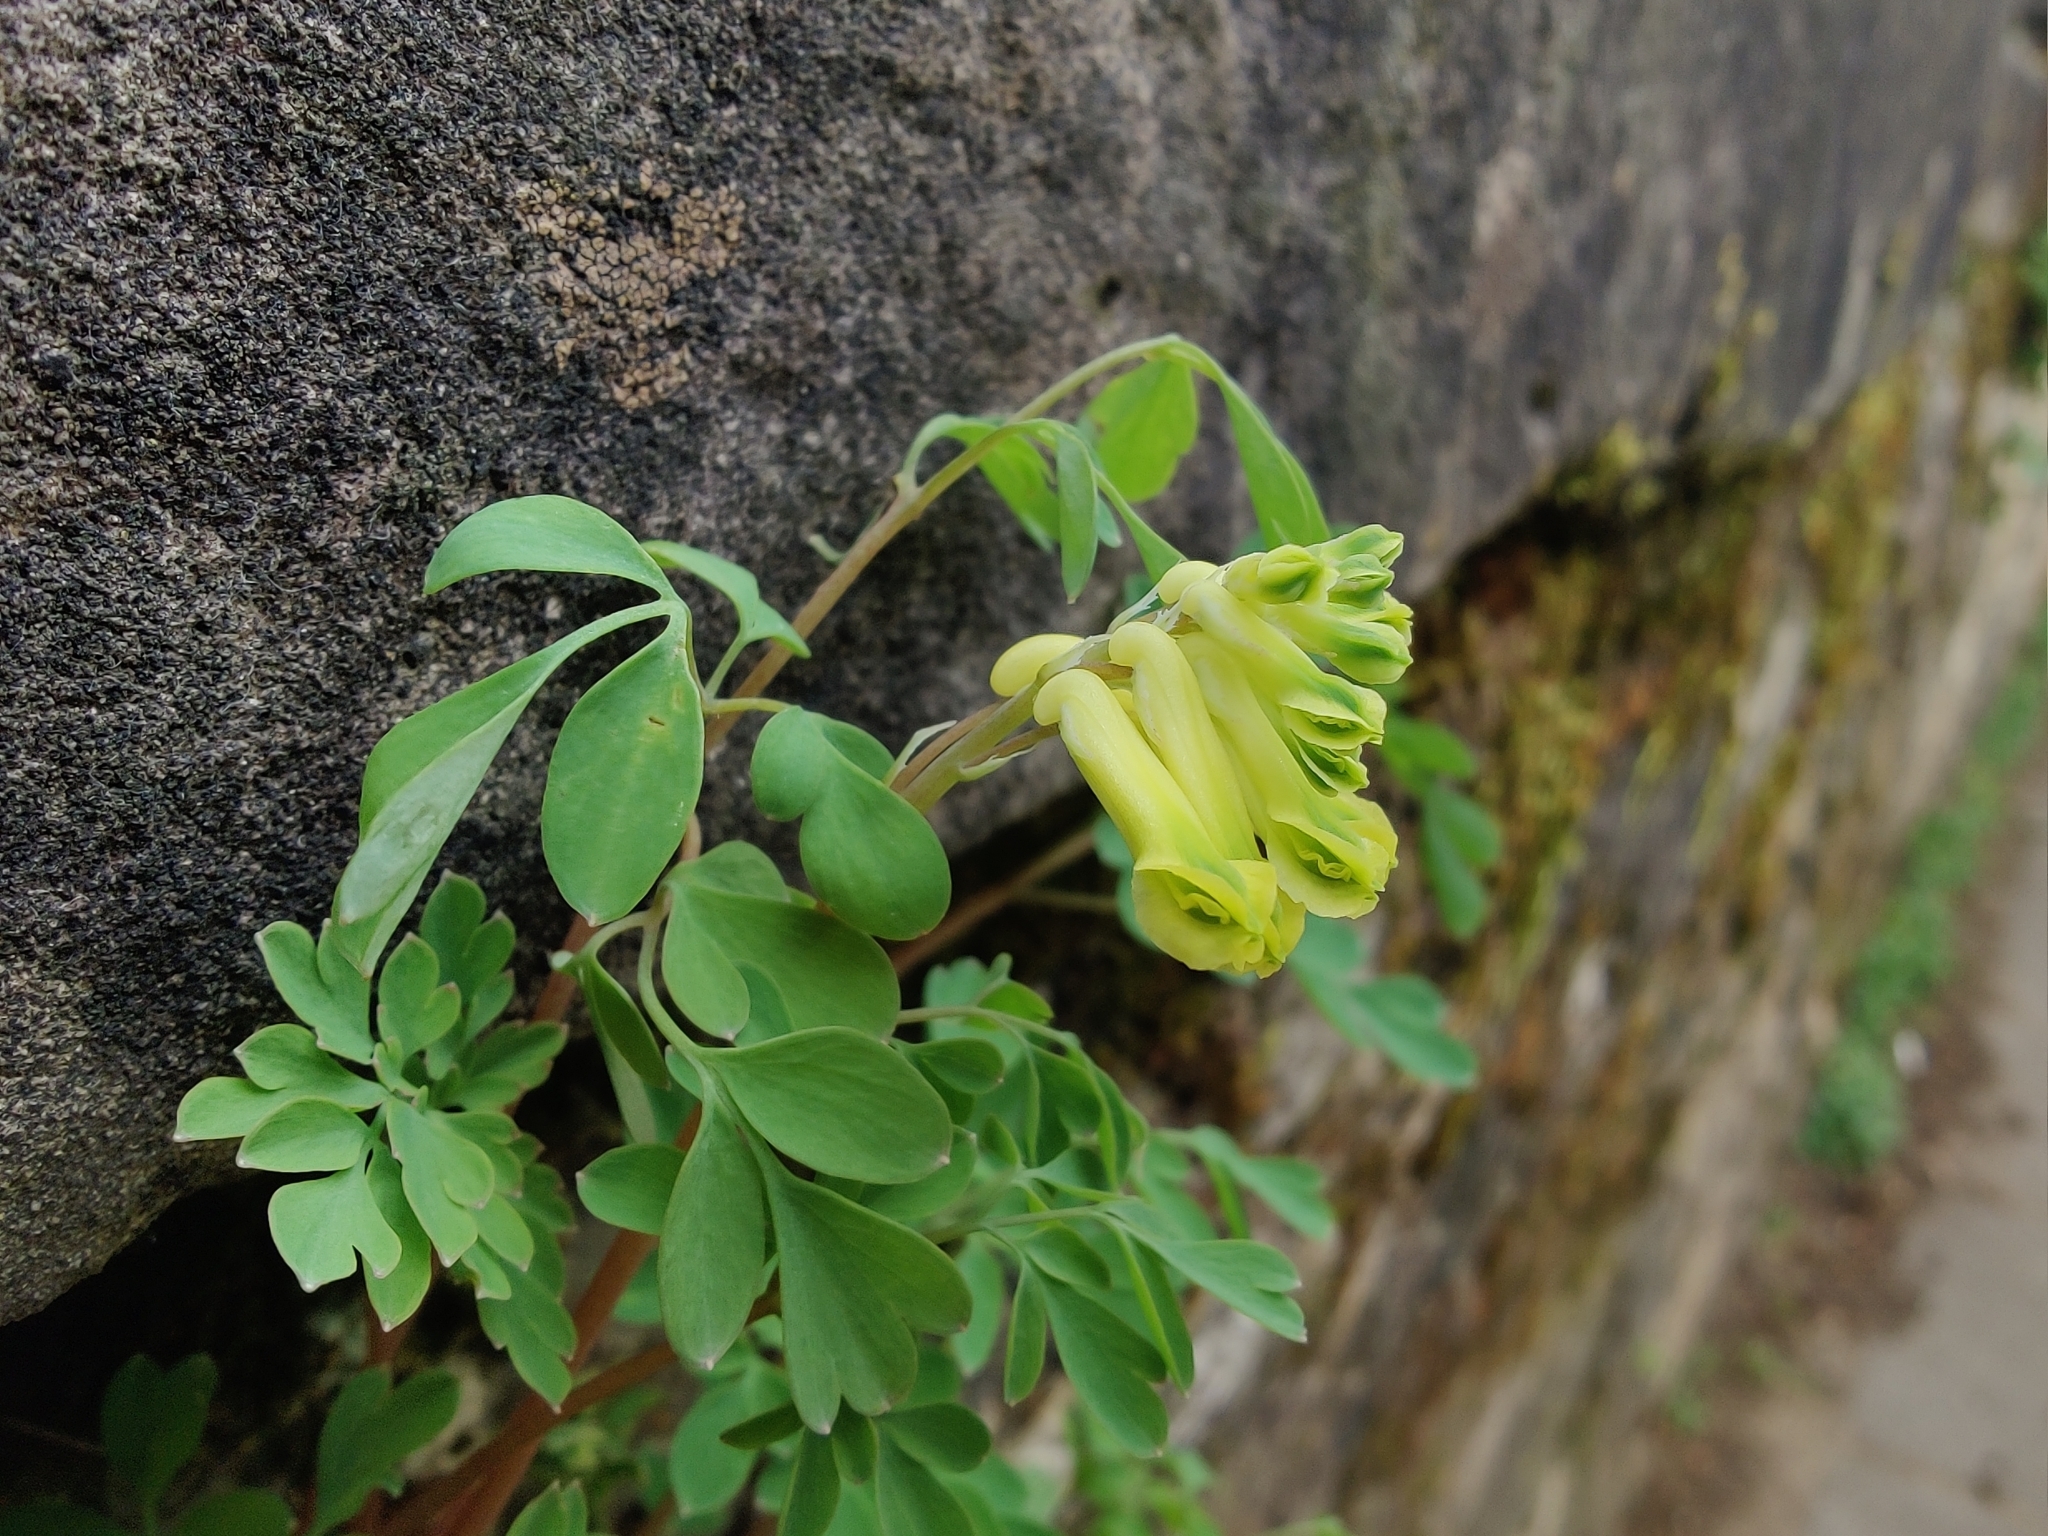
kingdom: Plantae
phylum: Tracheophyta
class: Magnoliopsida
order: Ranunculales
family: Papaveraceae
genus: Pseudofumaria
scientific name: Pseudofumaria lutea
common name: Yellow corydalis
